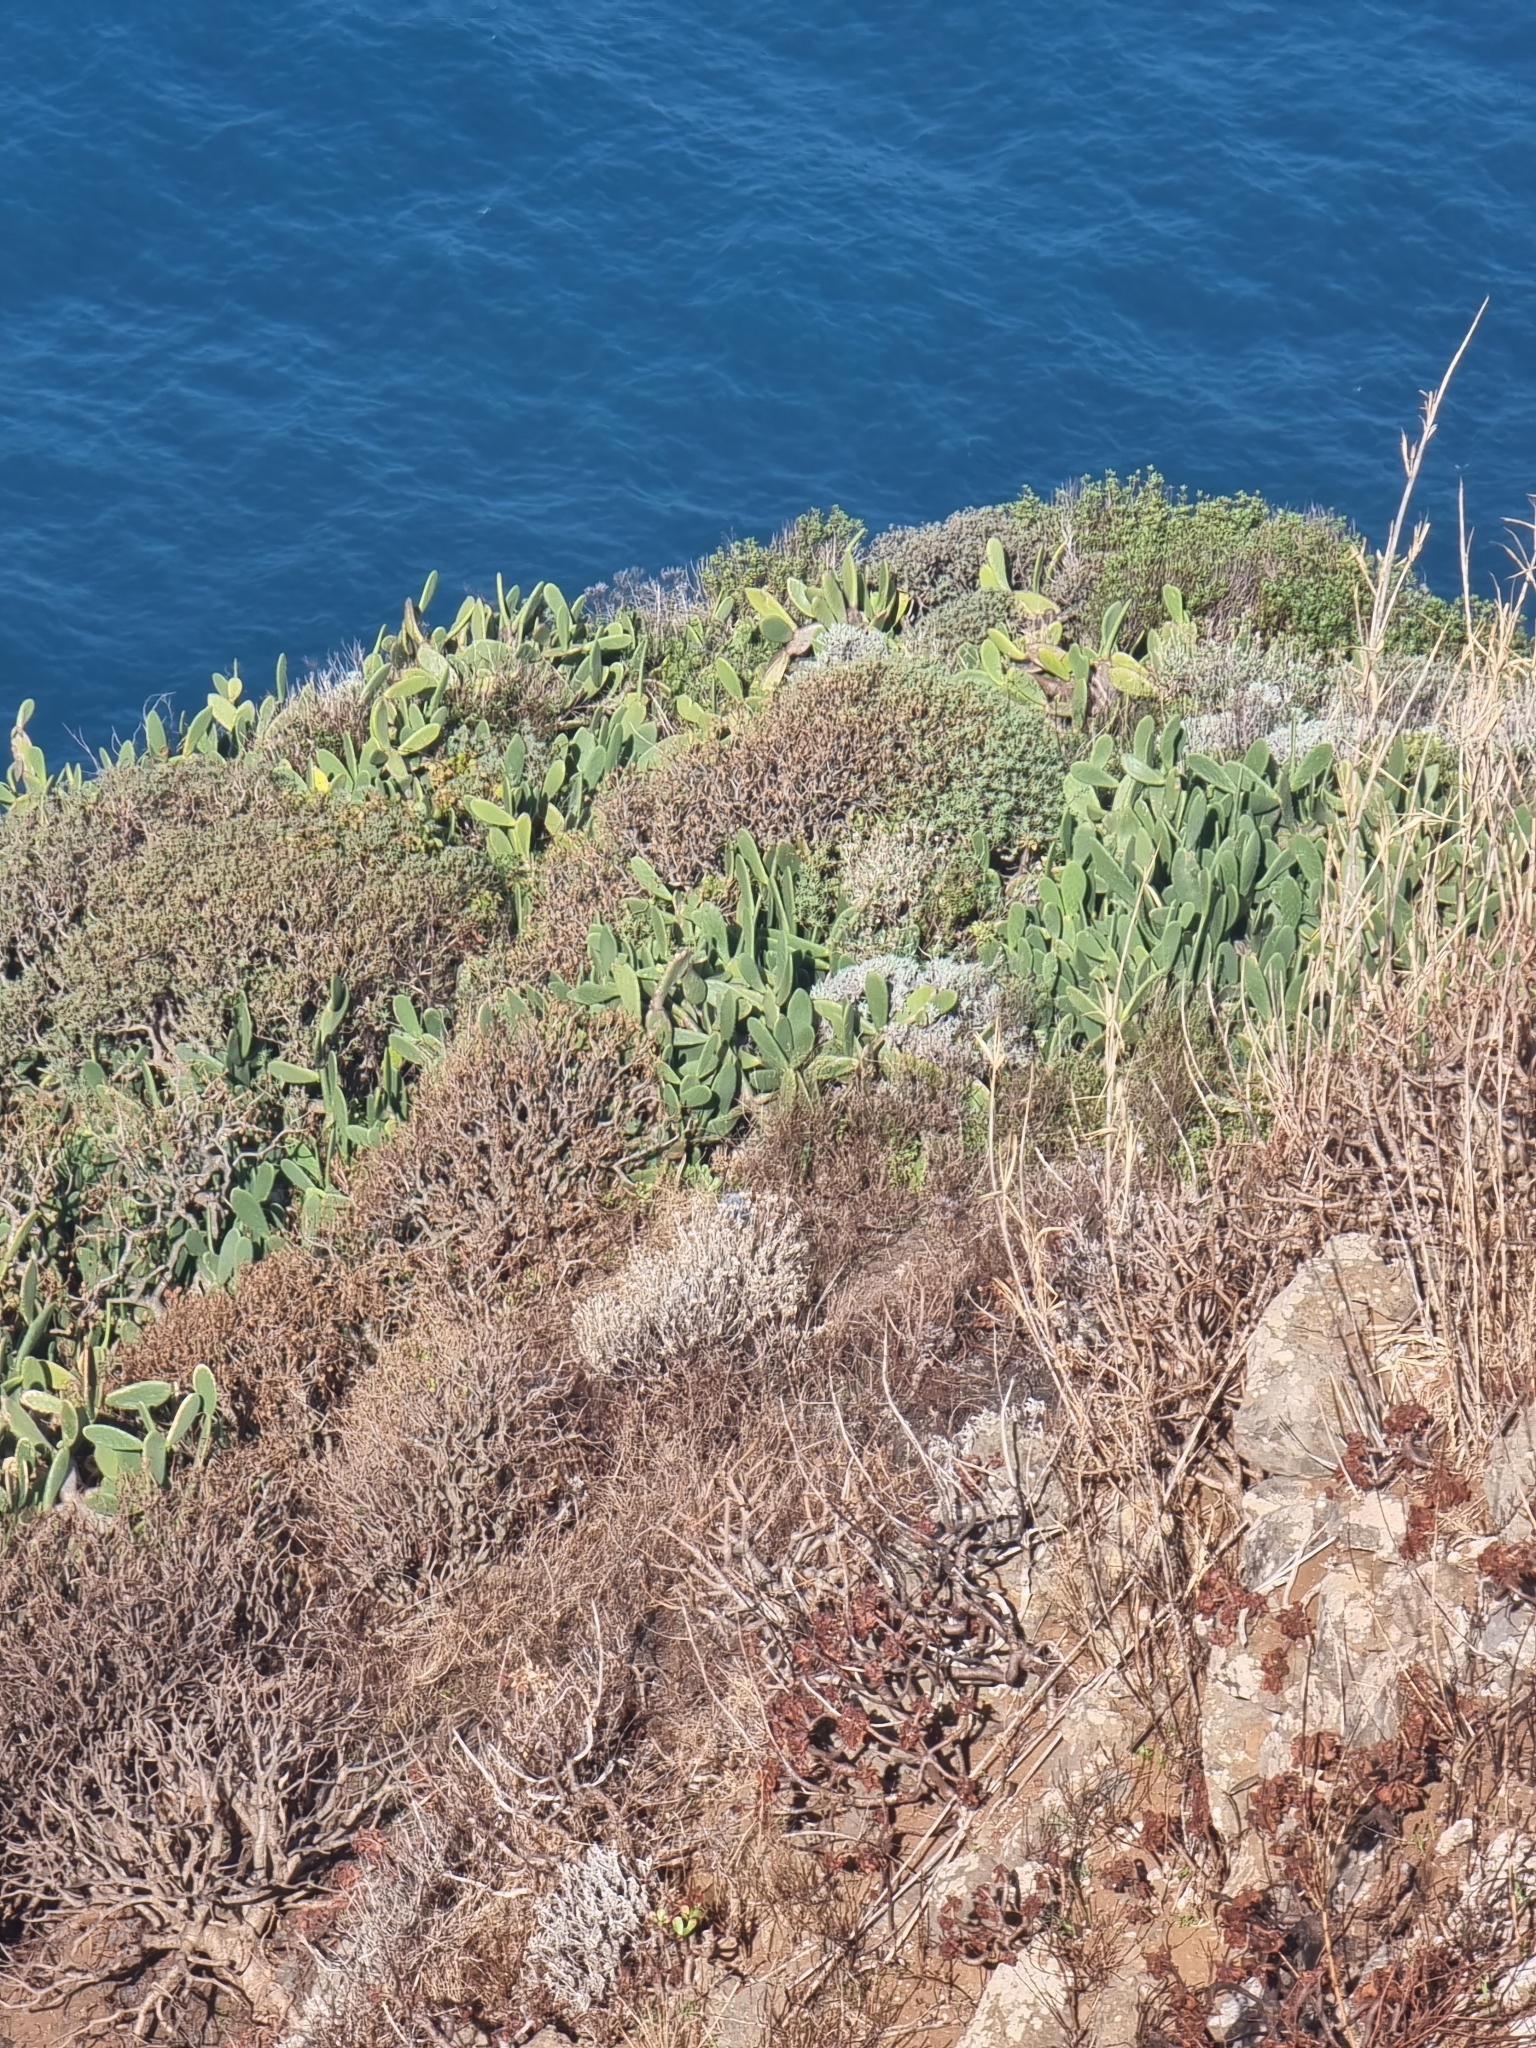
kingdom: Plantae
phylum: Tracheophyta
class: Magnoliopsida
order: Malpighiales
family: Euphorbiaceae
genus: Euphorbia
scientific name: Euphorbia piscatoria
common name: Fish-stunning spurge
